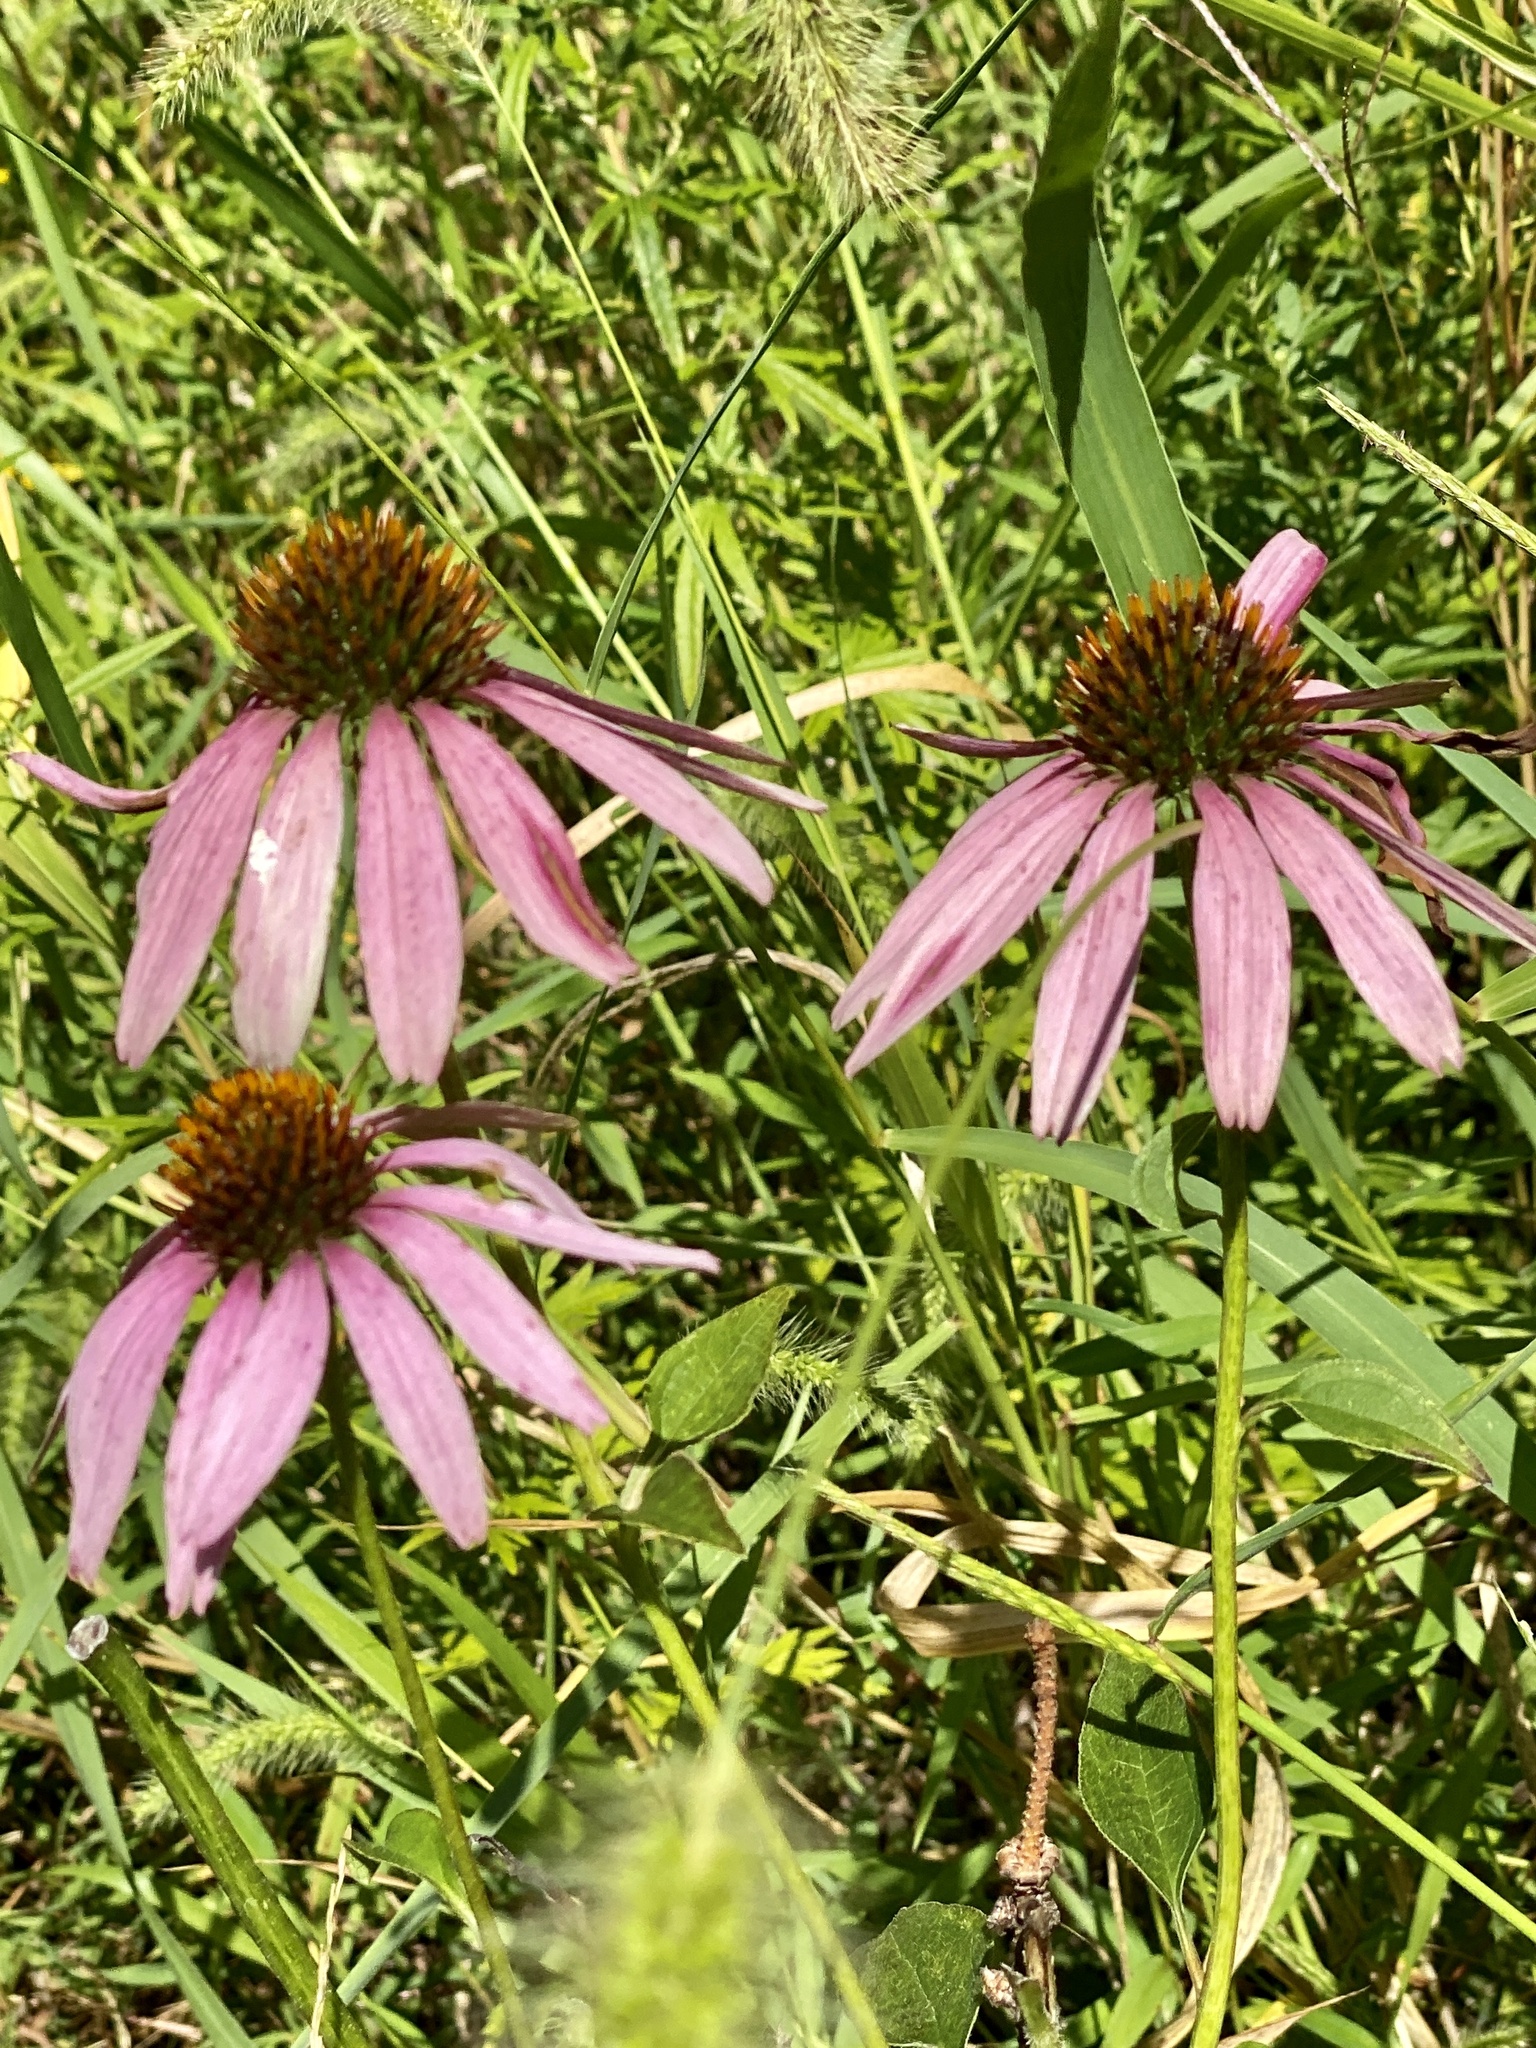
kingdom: Plantae
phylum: Tracheophyta
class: Magnoliopsida
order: Asterales
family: Asteraceae
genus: Echinacea
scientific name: Echinacea purpurea
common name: Broad-leaved purple coneflower
